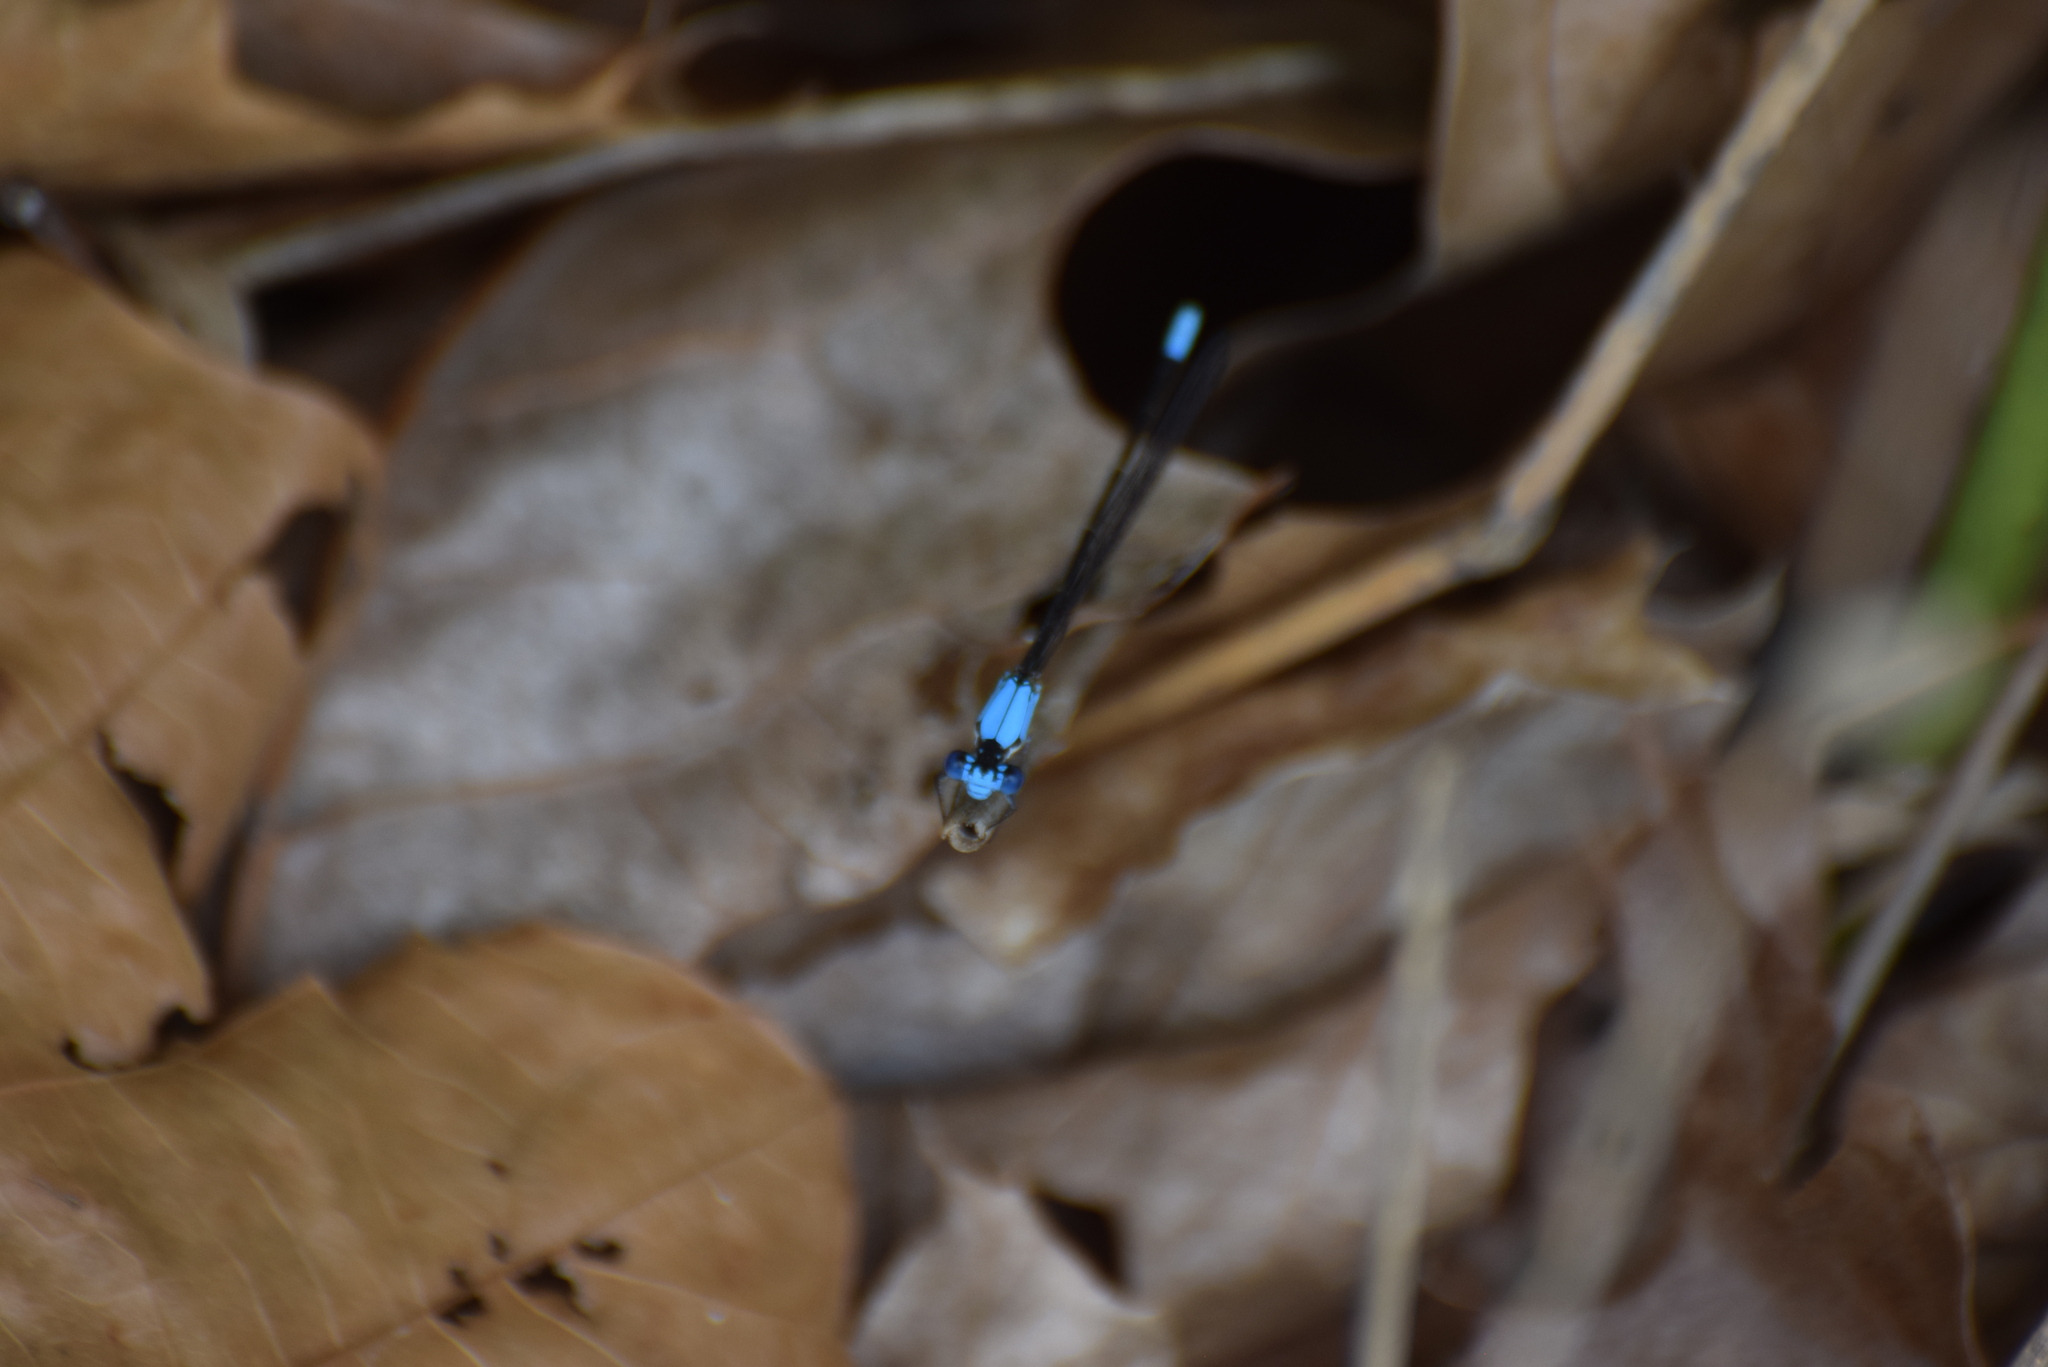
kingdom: Animalia
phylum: Arthropoda
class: Insecta
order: Odonata
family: Coenagrionidae
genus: Argia
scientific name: Argia apicalis
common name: Blue-fronted dancer
